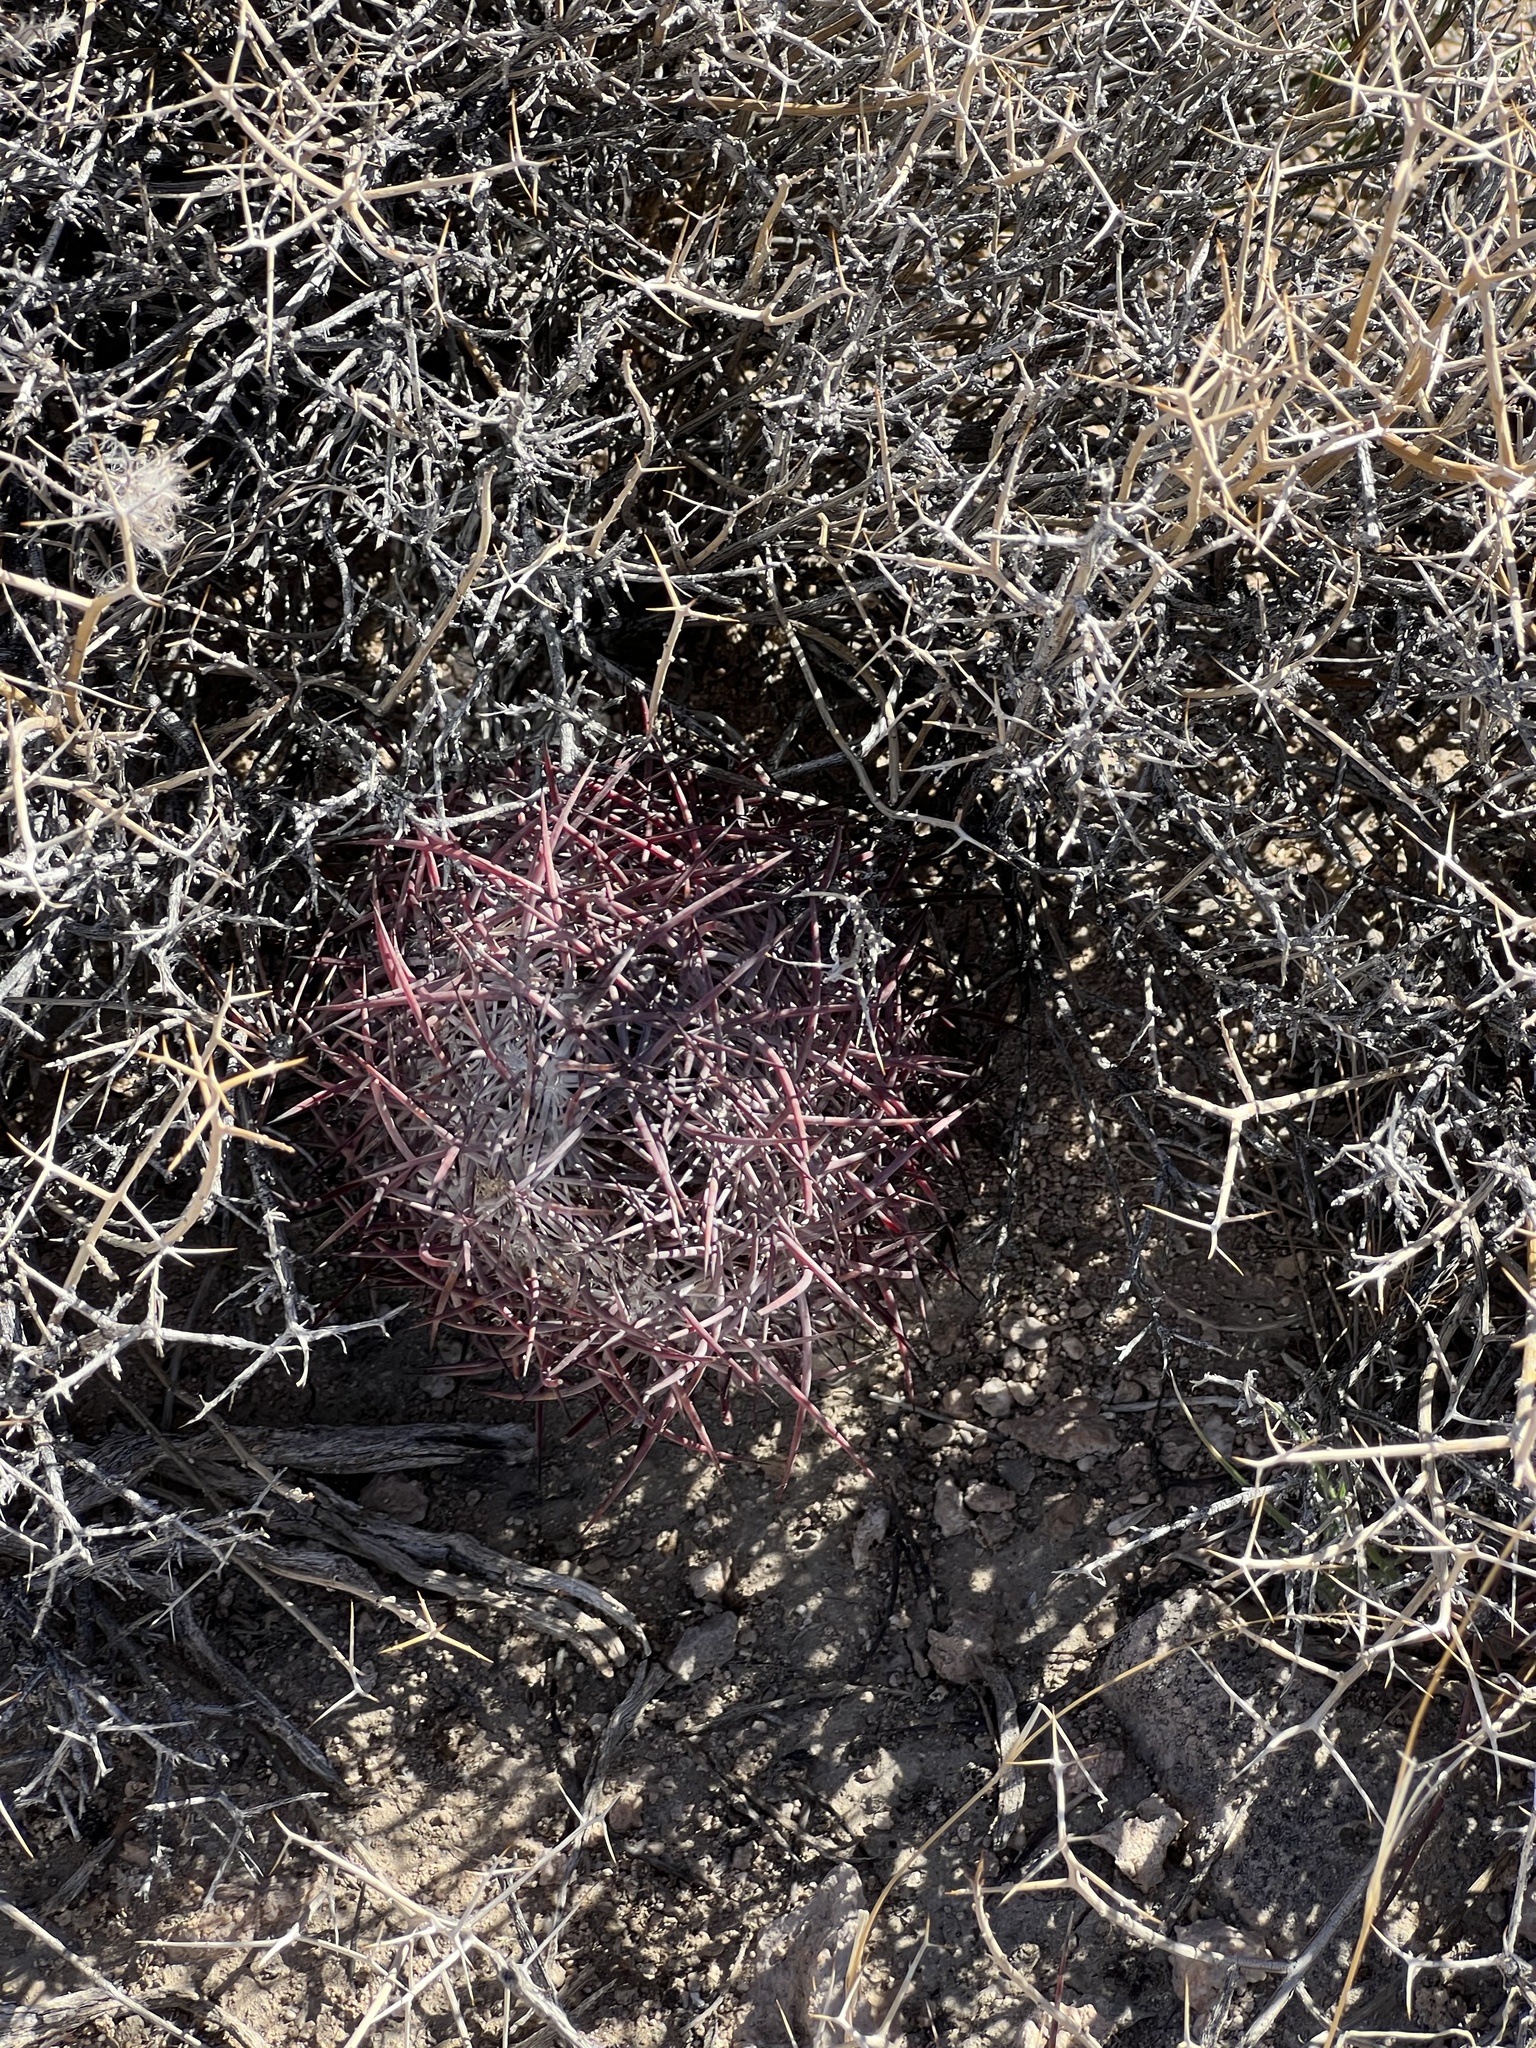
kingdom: Plantae
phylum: Tracheophyta
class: Magnoliopsida
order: Caryophyllales
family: Cactaceae
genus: Sclerocactus
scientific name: Sclerocactus johnsonii
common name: Eight-spine fishhook cactus
